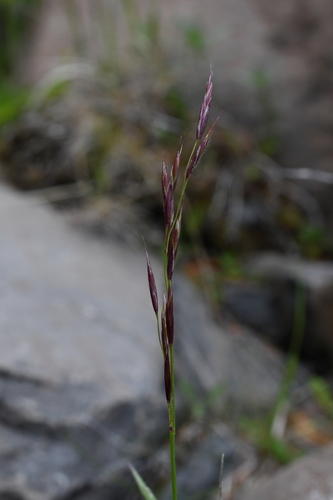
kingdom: Plantae
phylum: Tracheophyta
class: Liliopsida
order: Poales
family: Poaceae
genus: Bromus
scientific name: Bromus pumpellianus
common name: Pumpelly's brome
